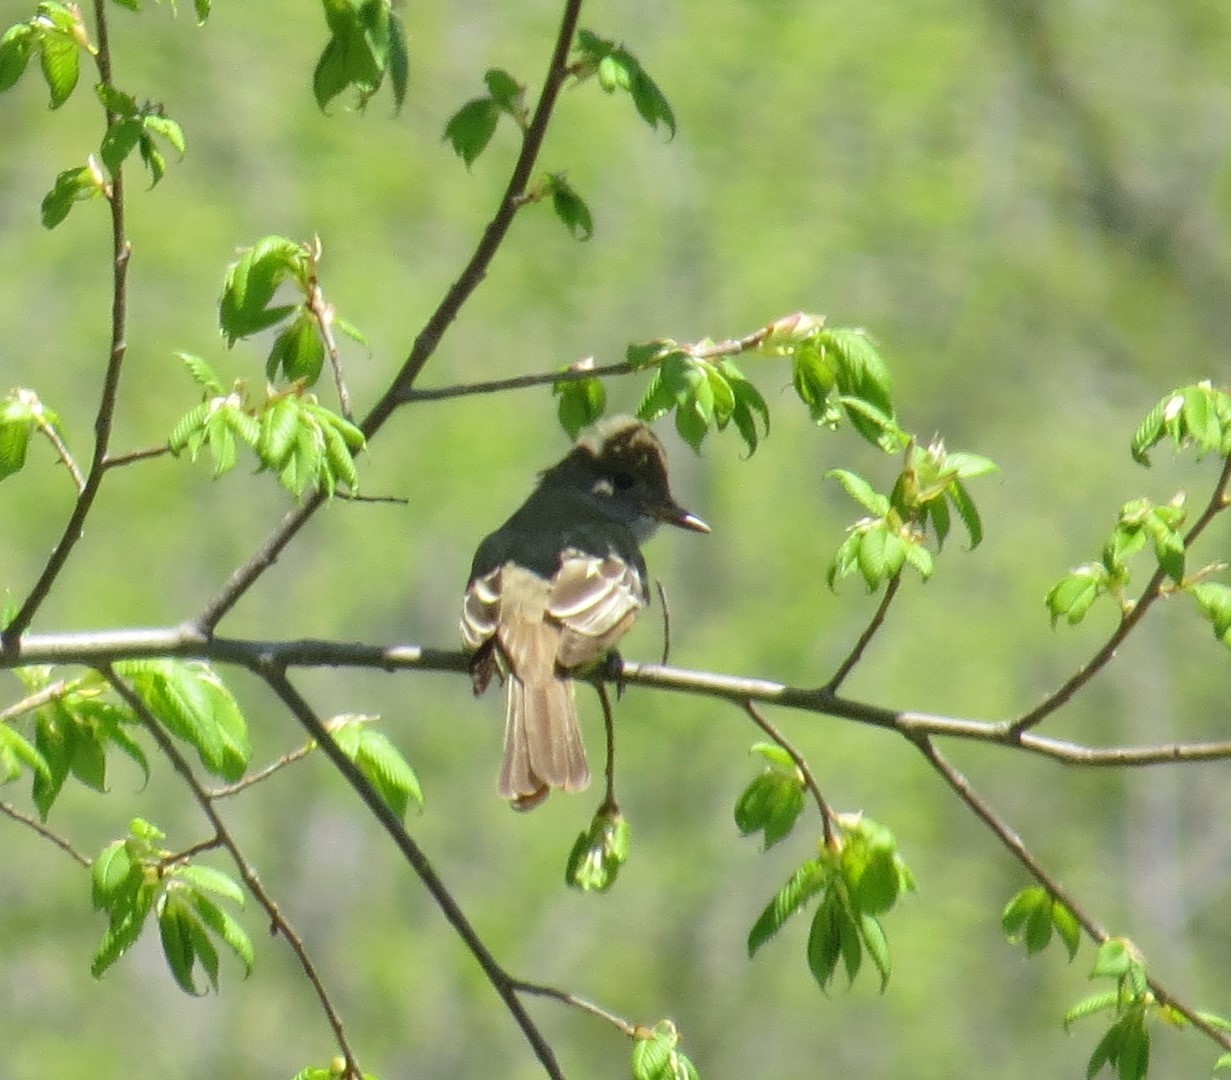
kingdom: Animalia
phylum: Chordata
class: Aves
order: Passeriformes
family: Tyrannidae
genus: Myiarchus
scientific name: Myiarchus crinitus
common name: Great crested flycatcher
